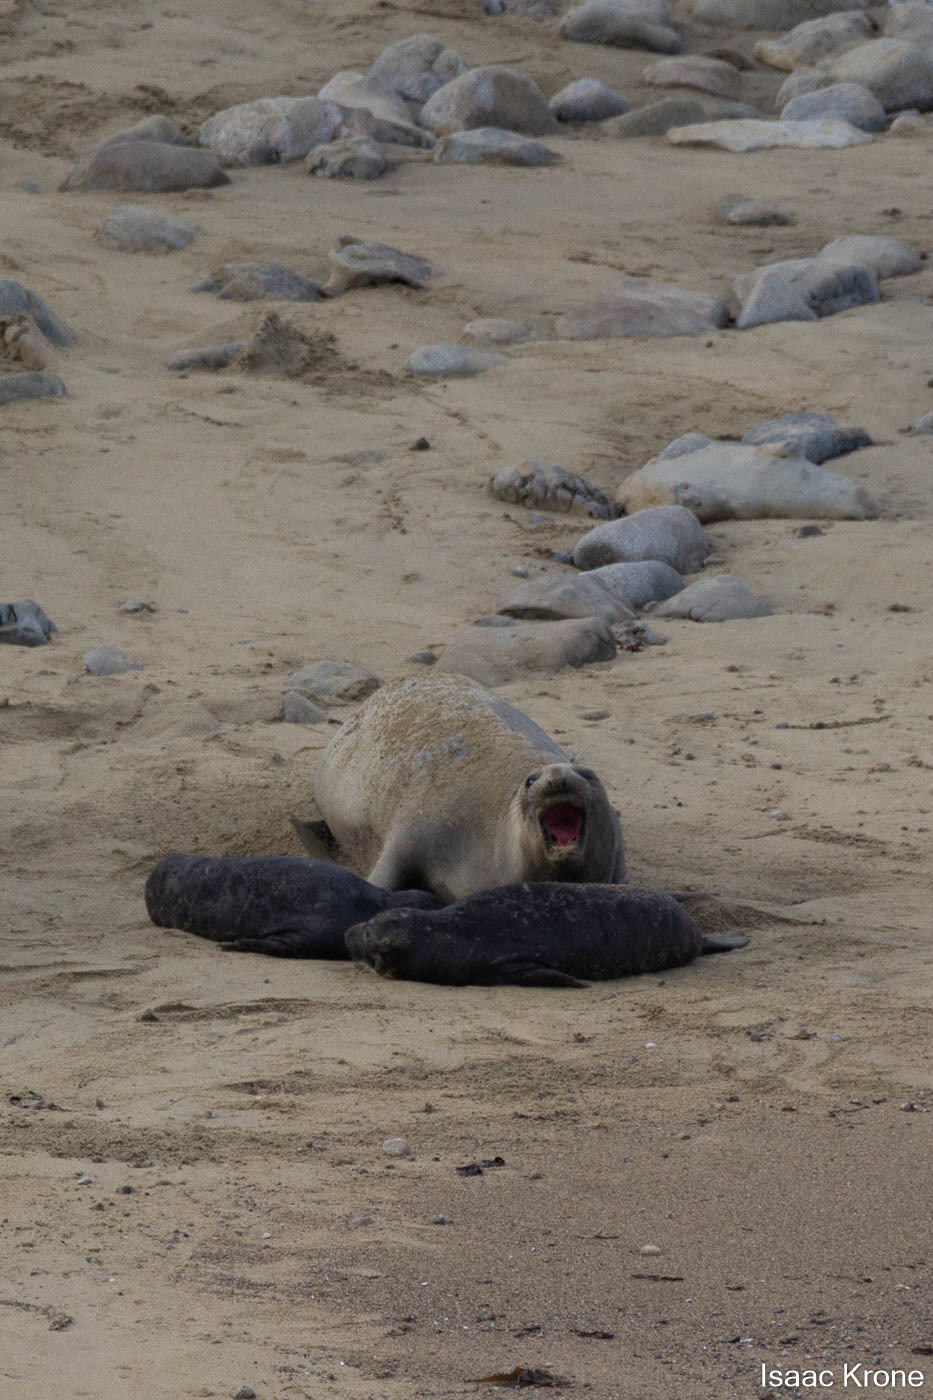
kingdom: Animalia
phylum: Chordata
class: Mammalia
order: Carnivora
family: Phocidae
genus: Mirounga
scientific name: Mirounga angustirostris
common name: Northern elephant seal
